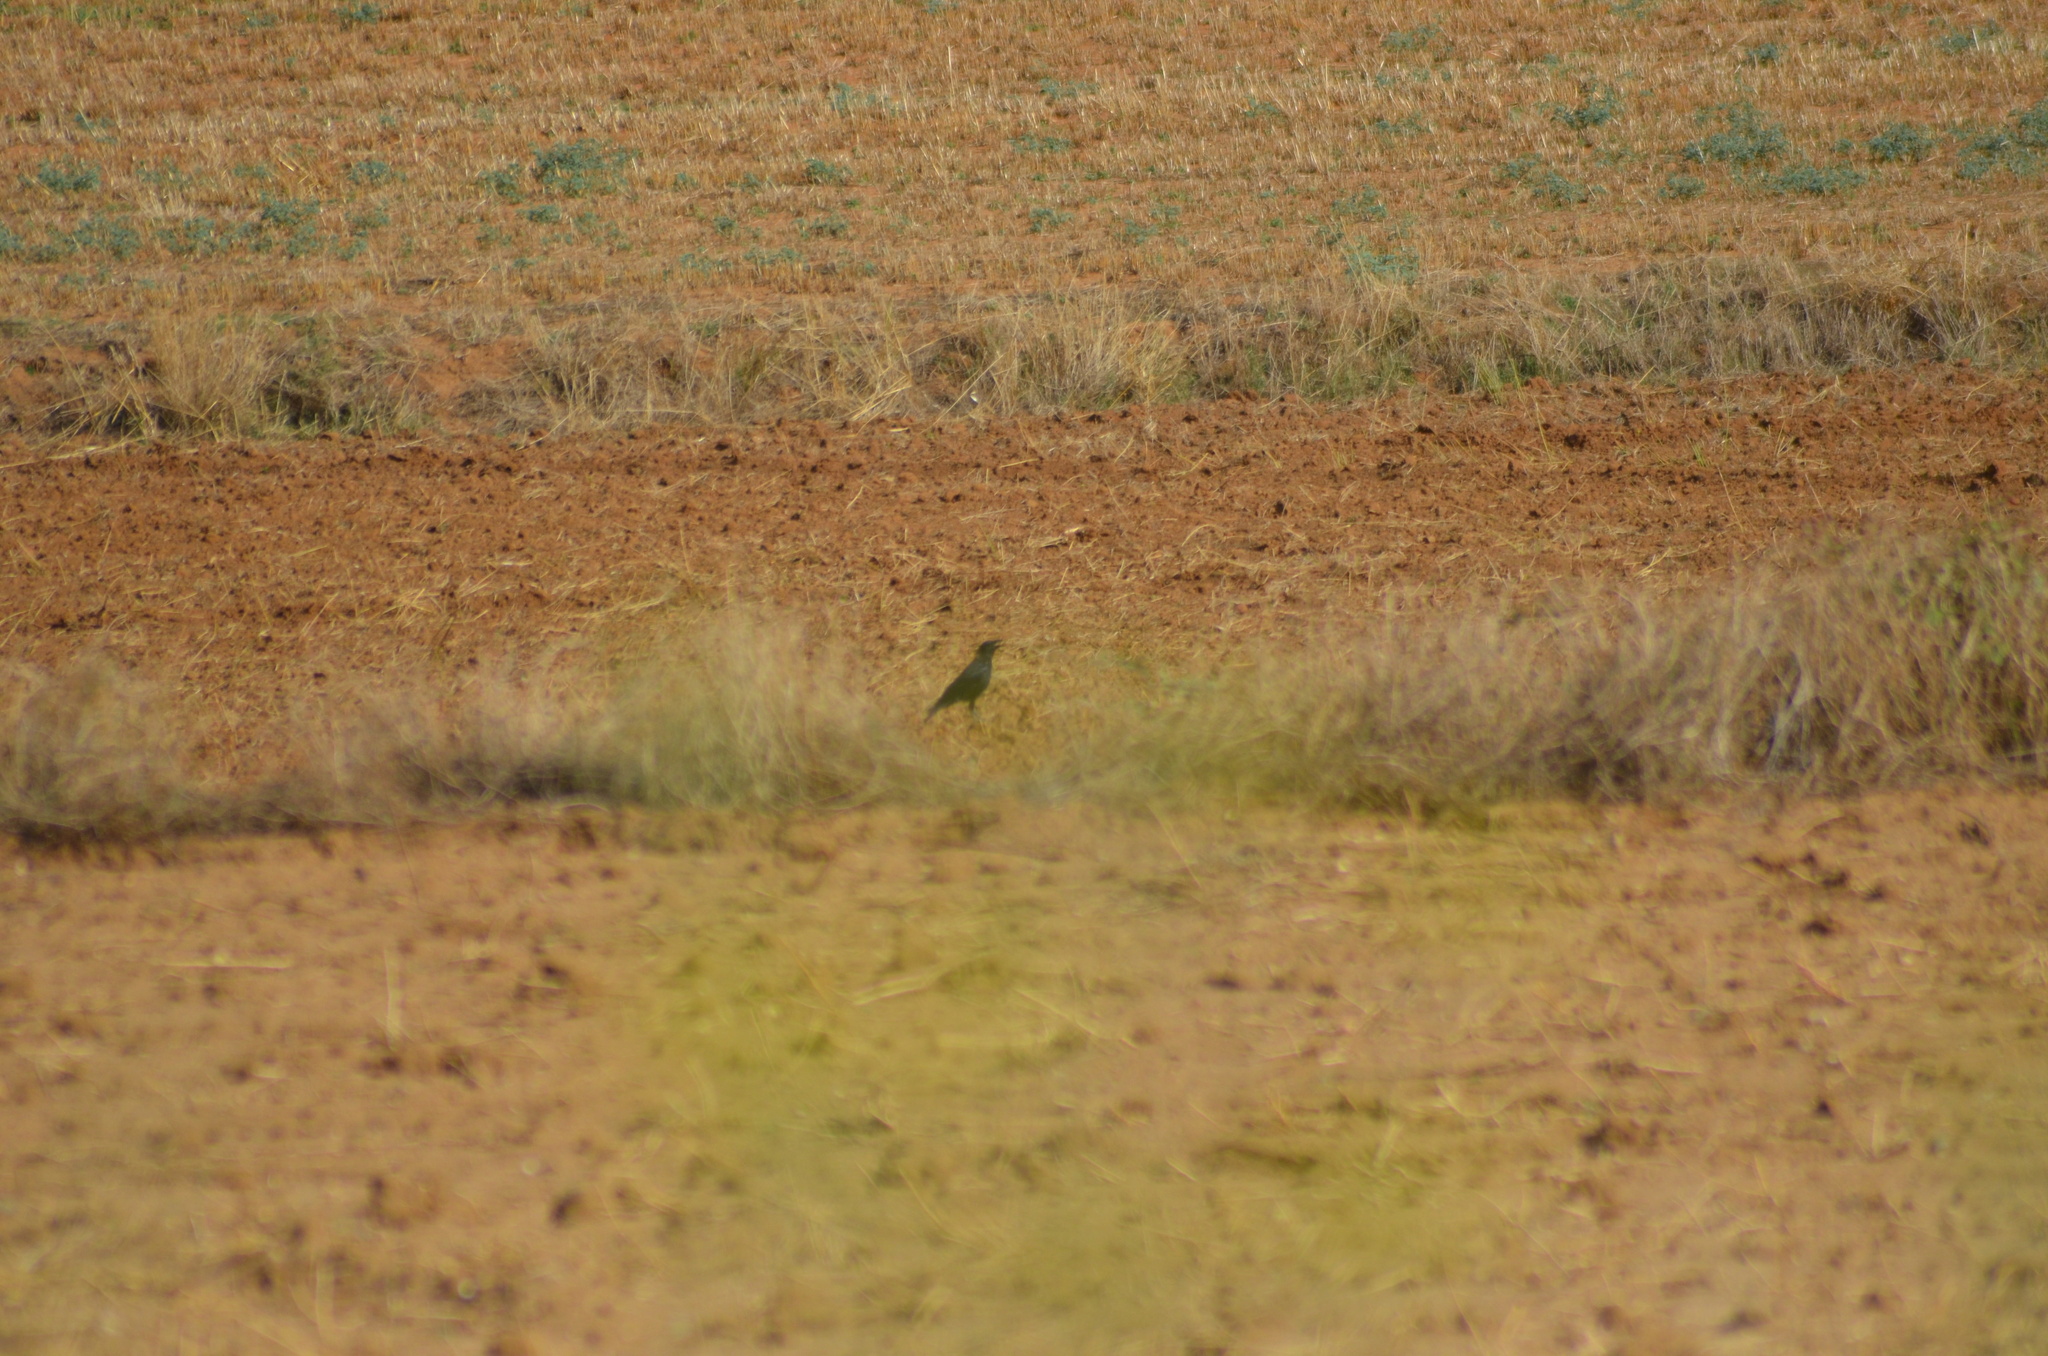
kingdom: Animalia
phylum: Chordata
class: Aves
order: Passeriformes
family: Corvidae
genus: Corvus
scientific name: Corvus corax
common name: Common raven
